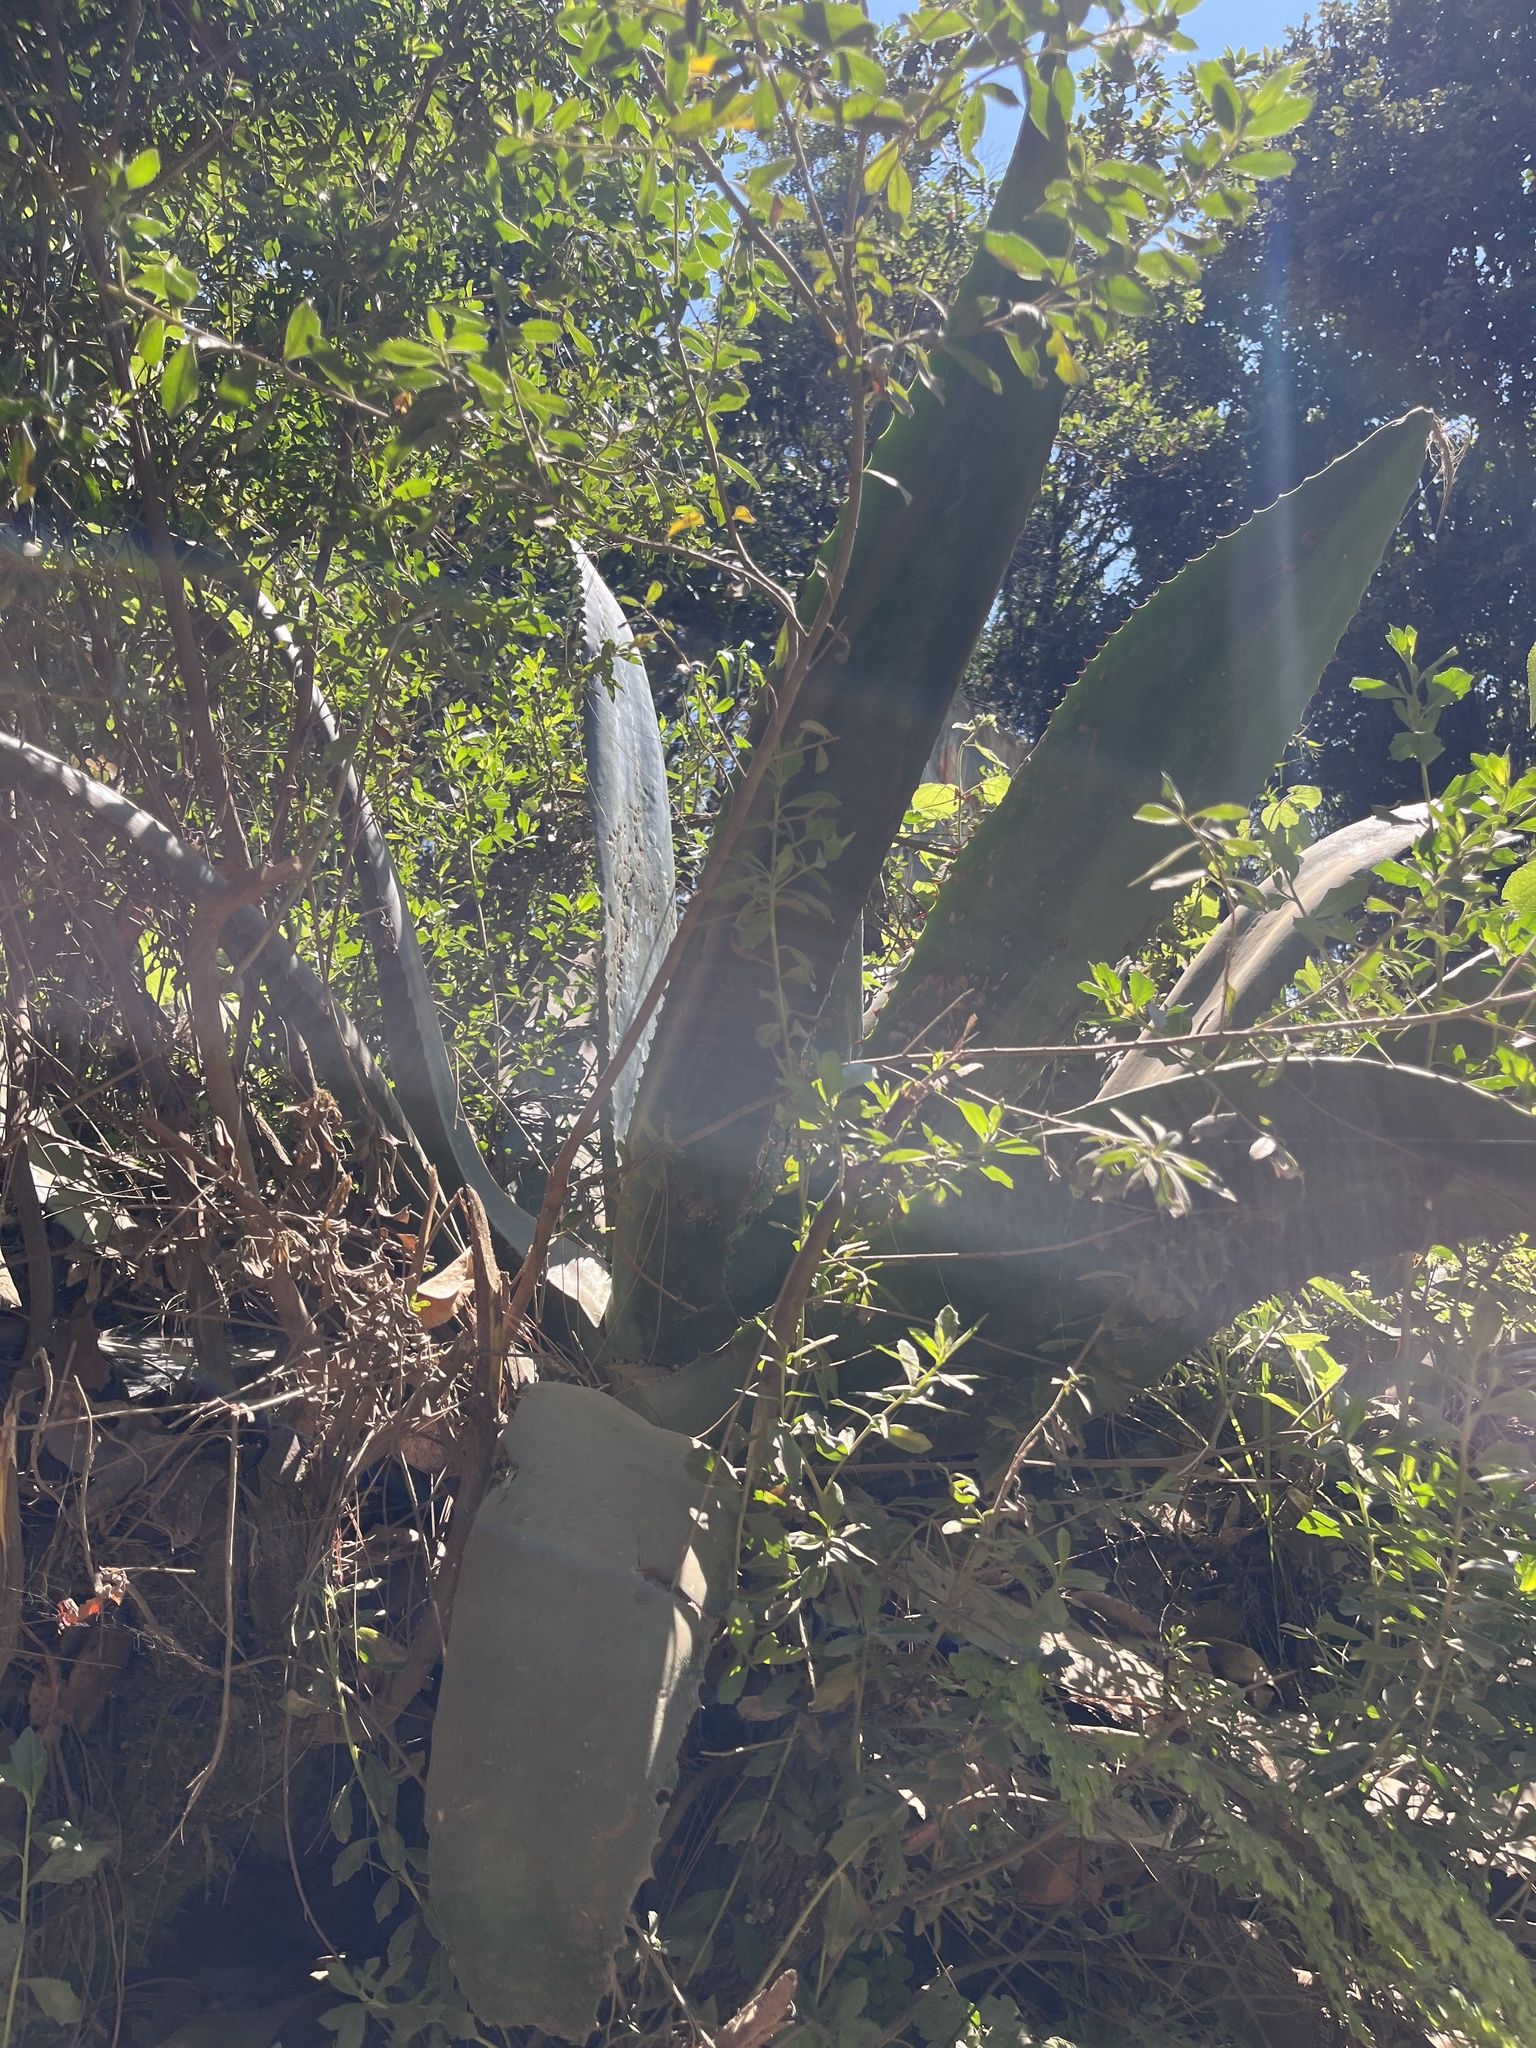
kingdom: Plantae
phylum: Tracheophyta
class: Liliopsida
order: Asparagales
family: Asparagaceae
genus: Agave
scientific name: Agave atrovirens
